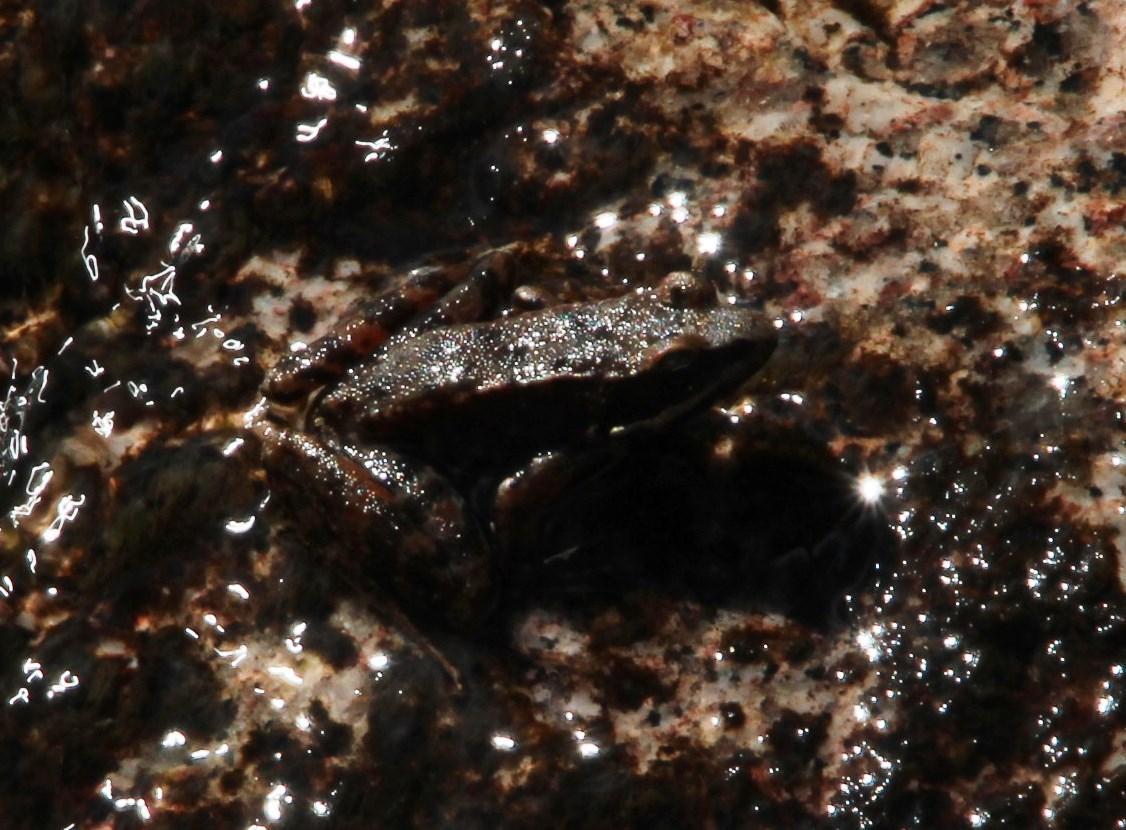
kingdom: Animalia
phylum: Chordata
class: Amphibia
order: Anura
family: Ranidae
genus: Rana
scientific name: Rana iberica
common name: Iberian frog
